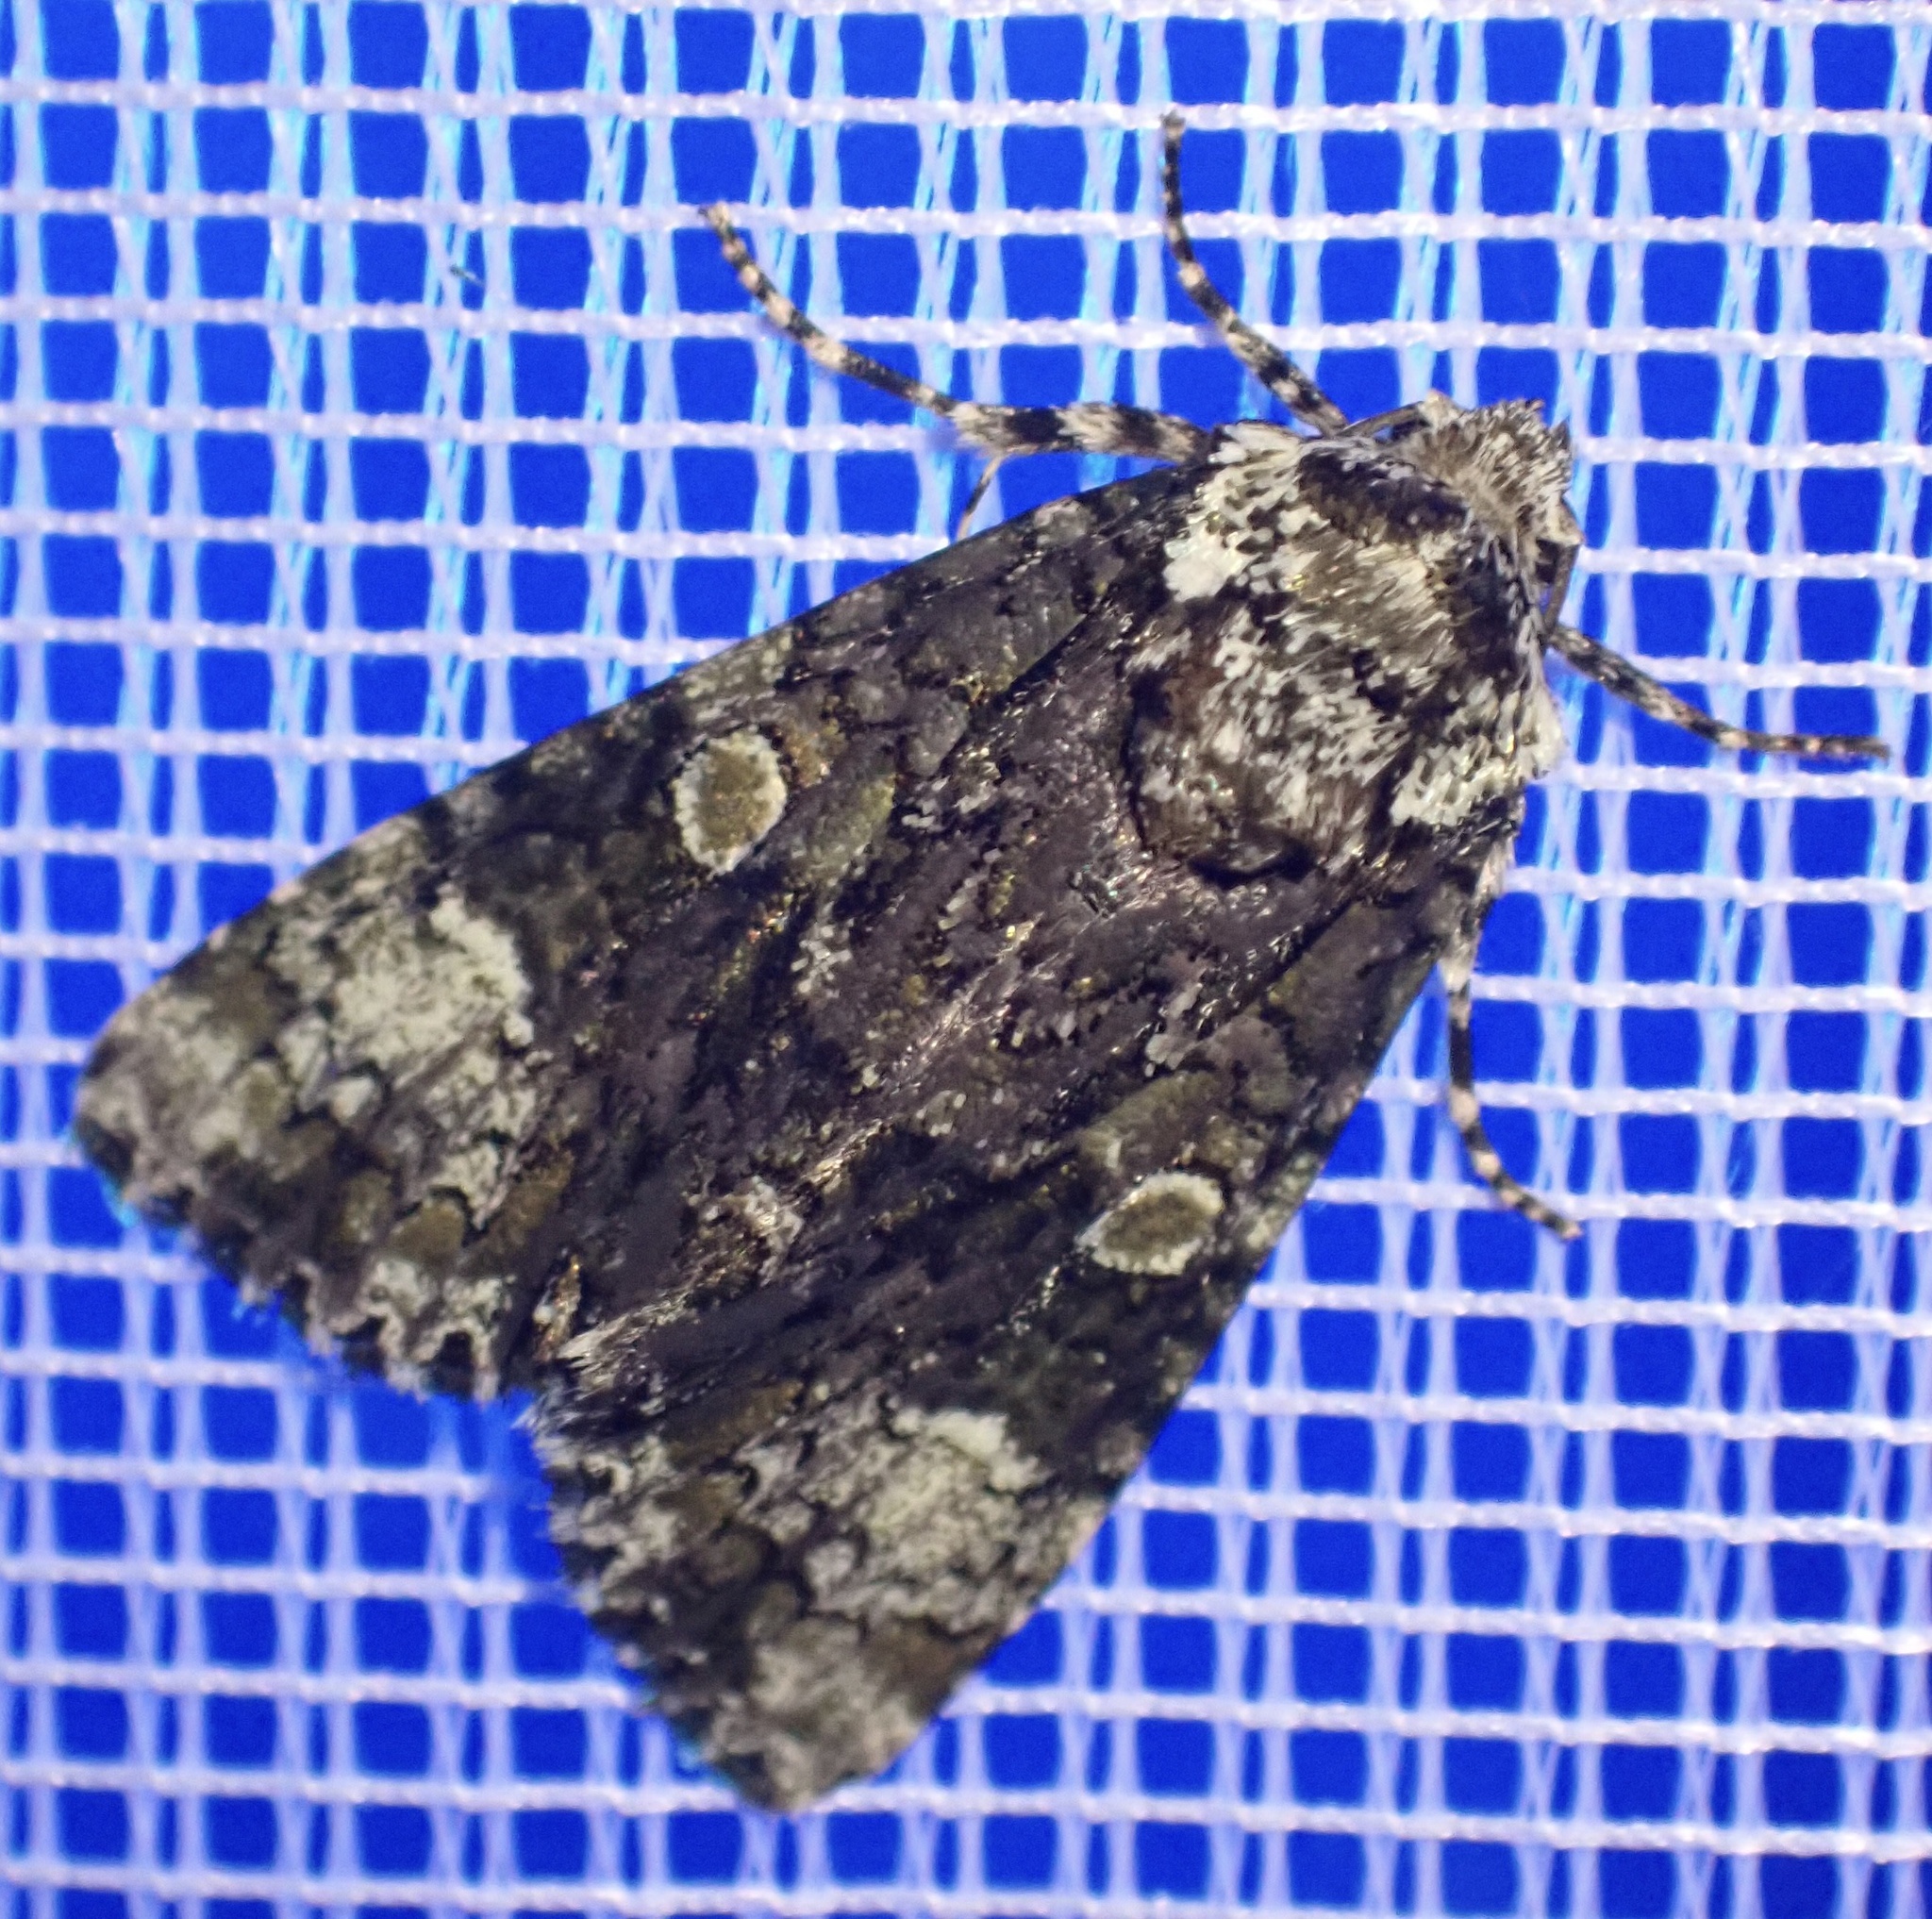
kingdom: Animalia
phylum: Arthropoda
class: Insecta
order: Lepidoptera
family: Noctuidae
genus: Craniophora
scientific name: Craniophora ligustri
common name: Coronet
